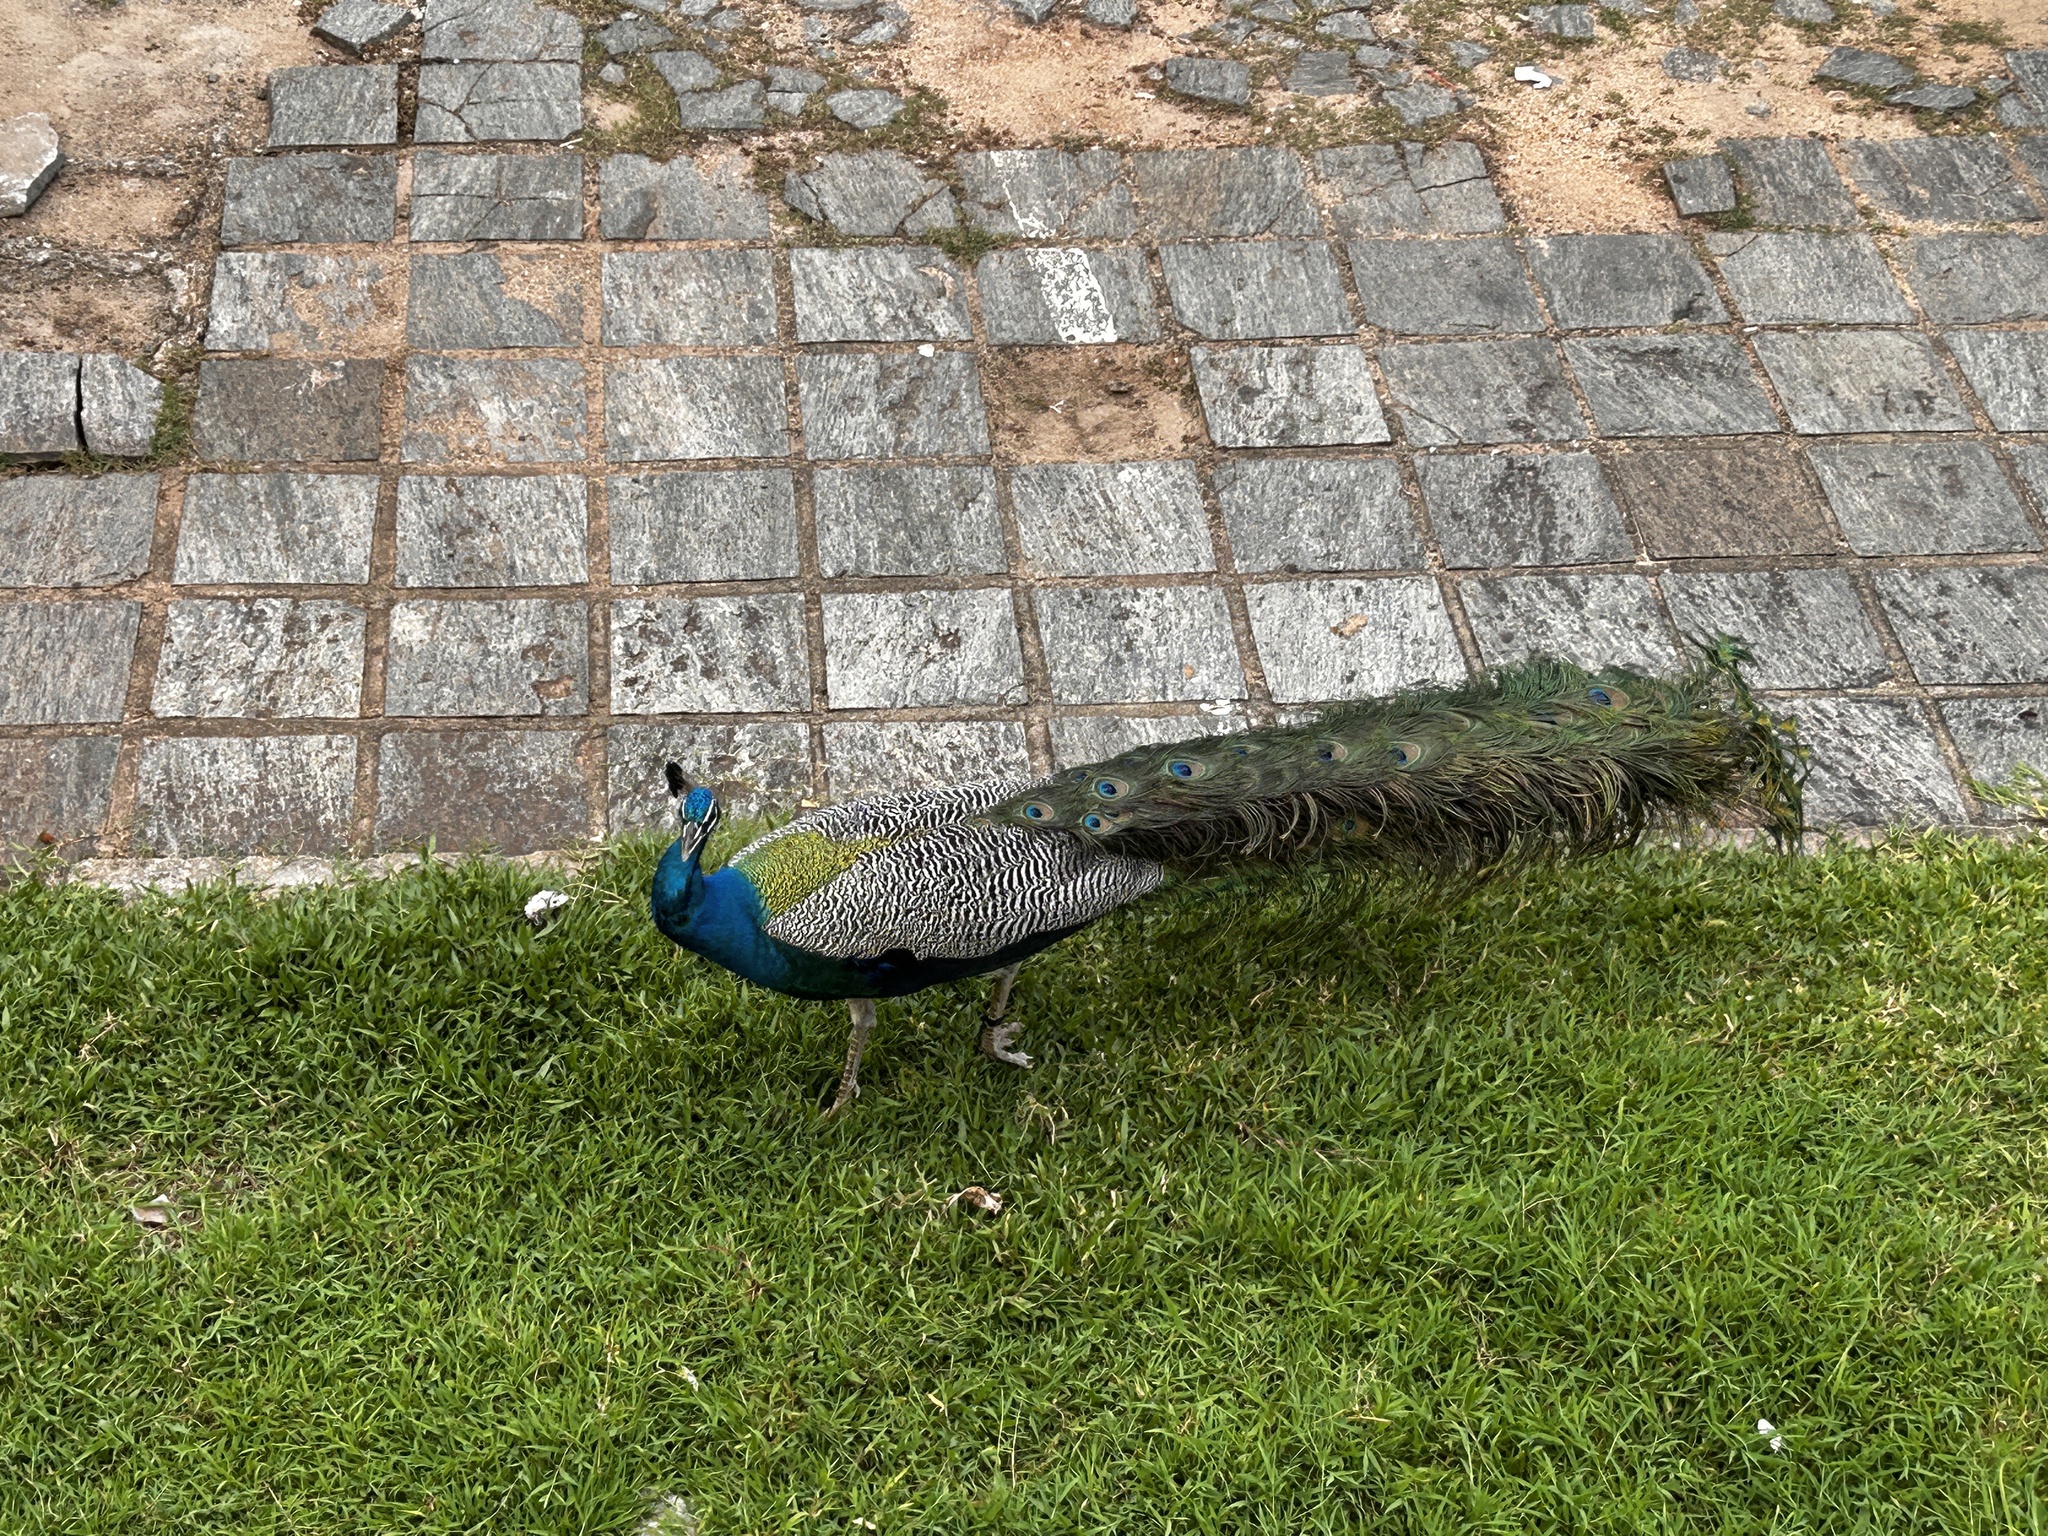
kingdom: Animalia
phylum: Chordata
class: Aves
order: Galliformes
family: Phasianidae
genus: Pavo
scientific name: Pavo cristatus
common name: Indian peafowl
